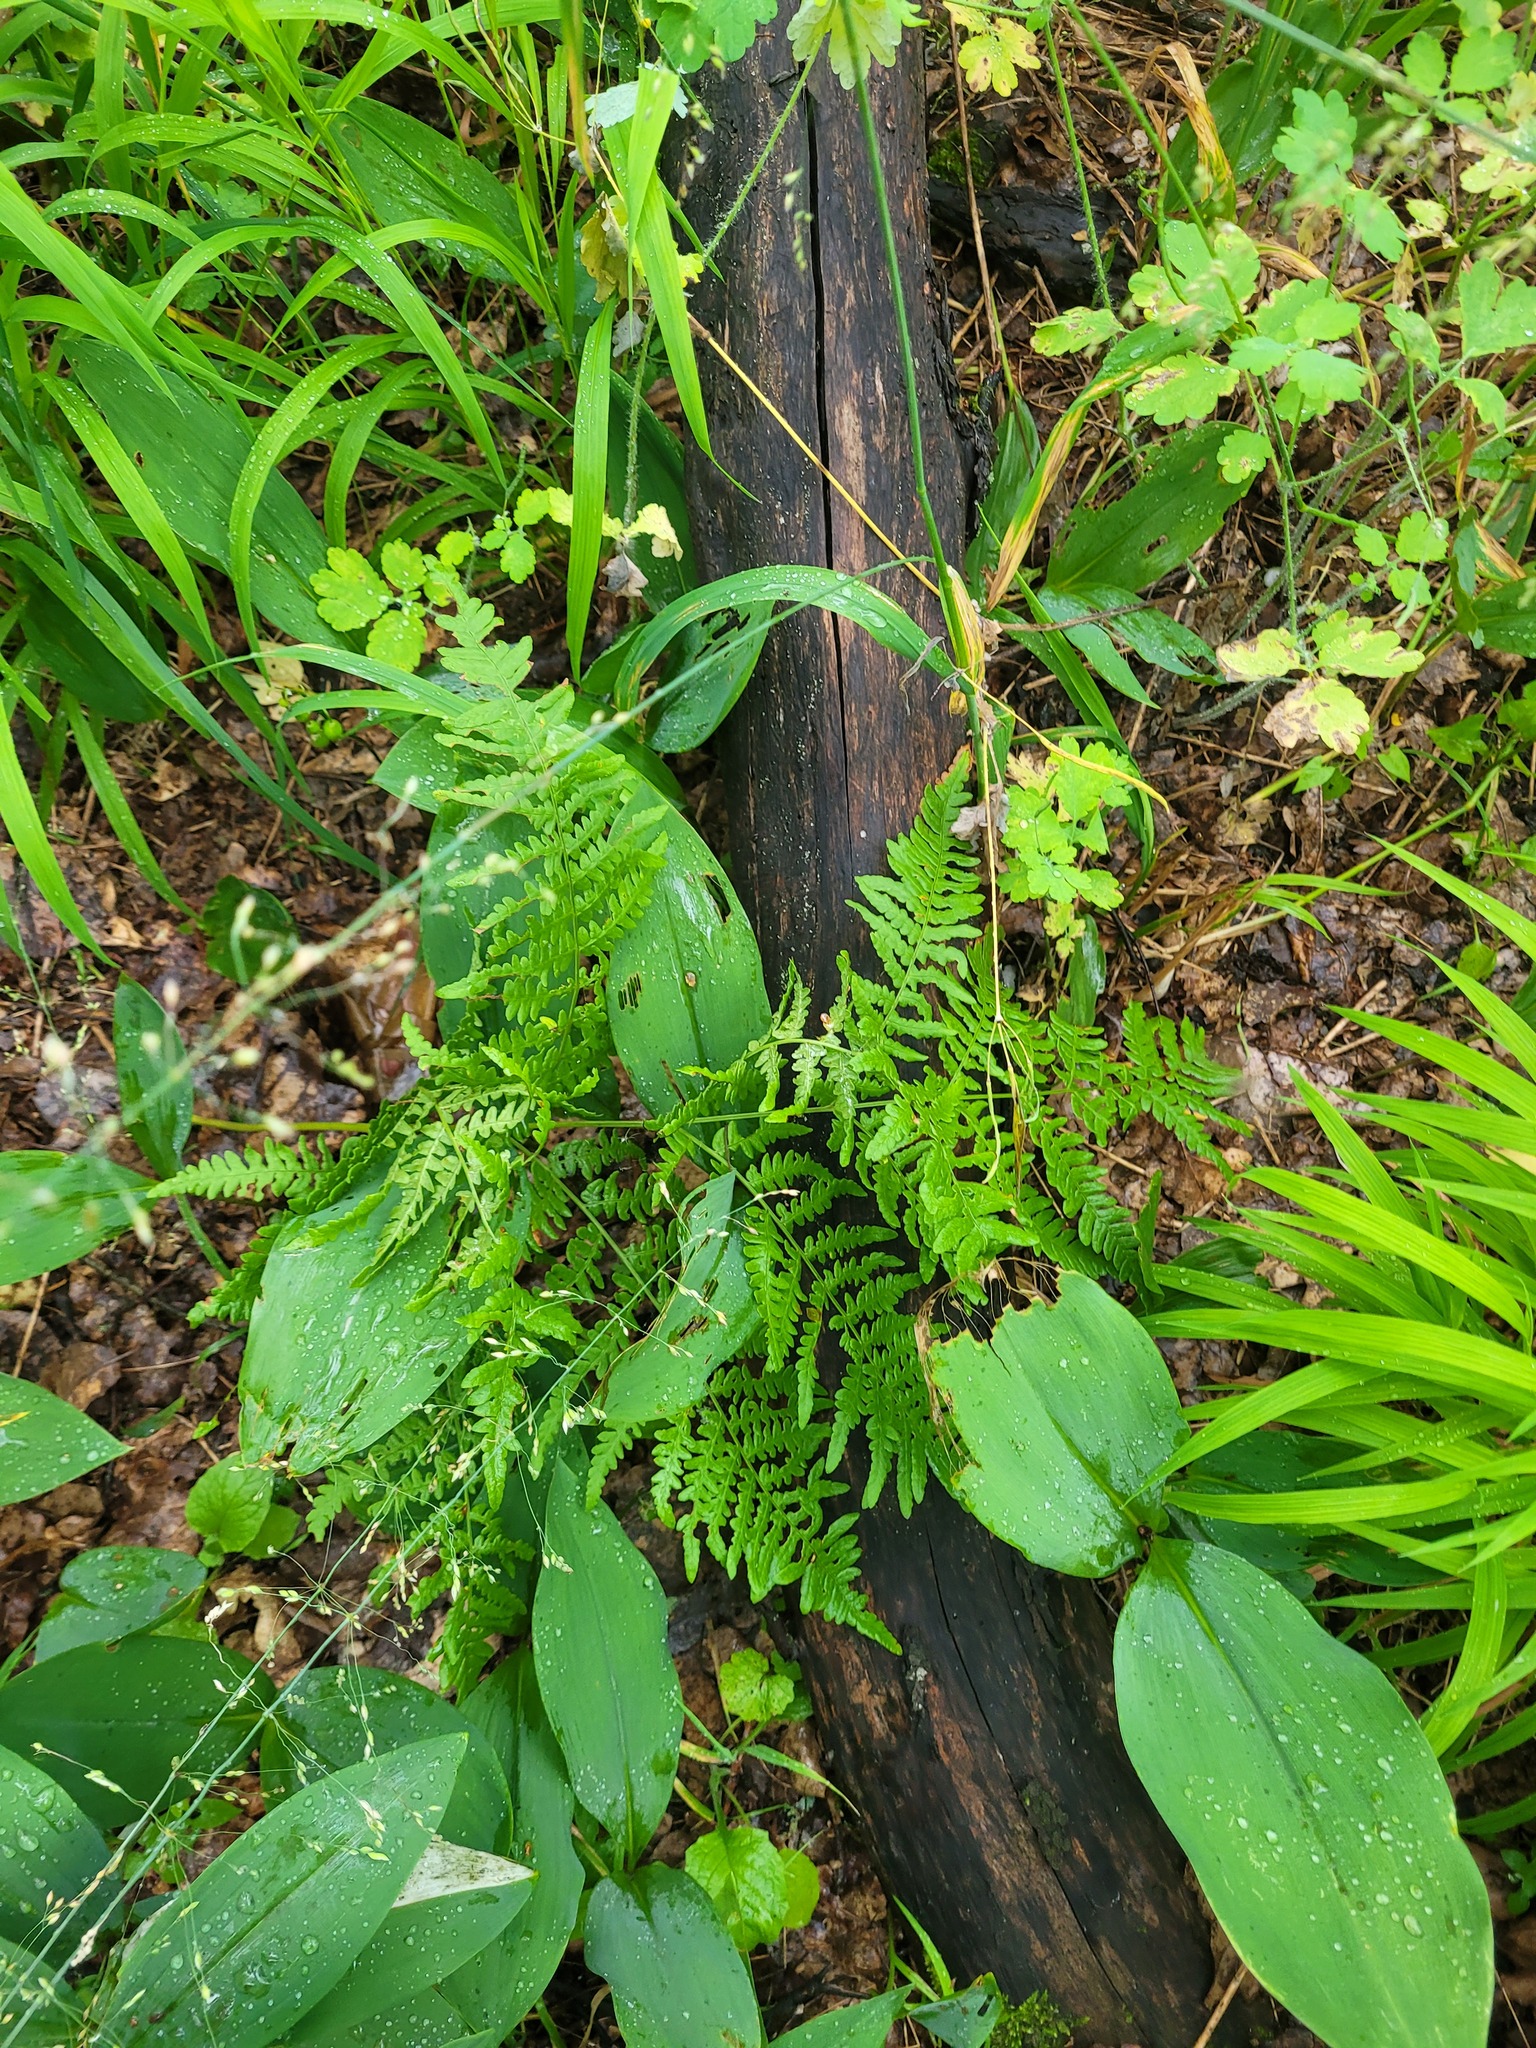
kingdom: Plantae
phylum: Tracheophyta
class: Polypodiopsida
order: Polypodiales
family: Dennstaedtiaceae
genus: Pteridium
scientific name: Pteridium aquilinum
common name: Bracken
